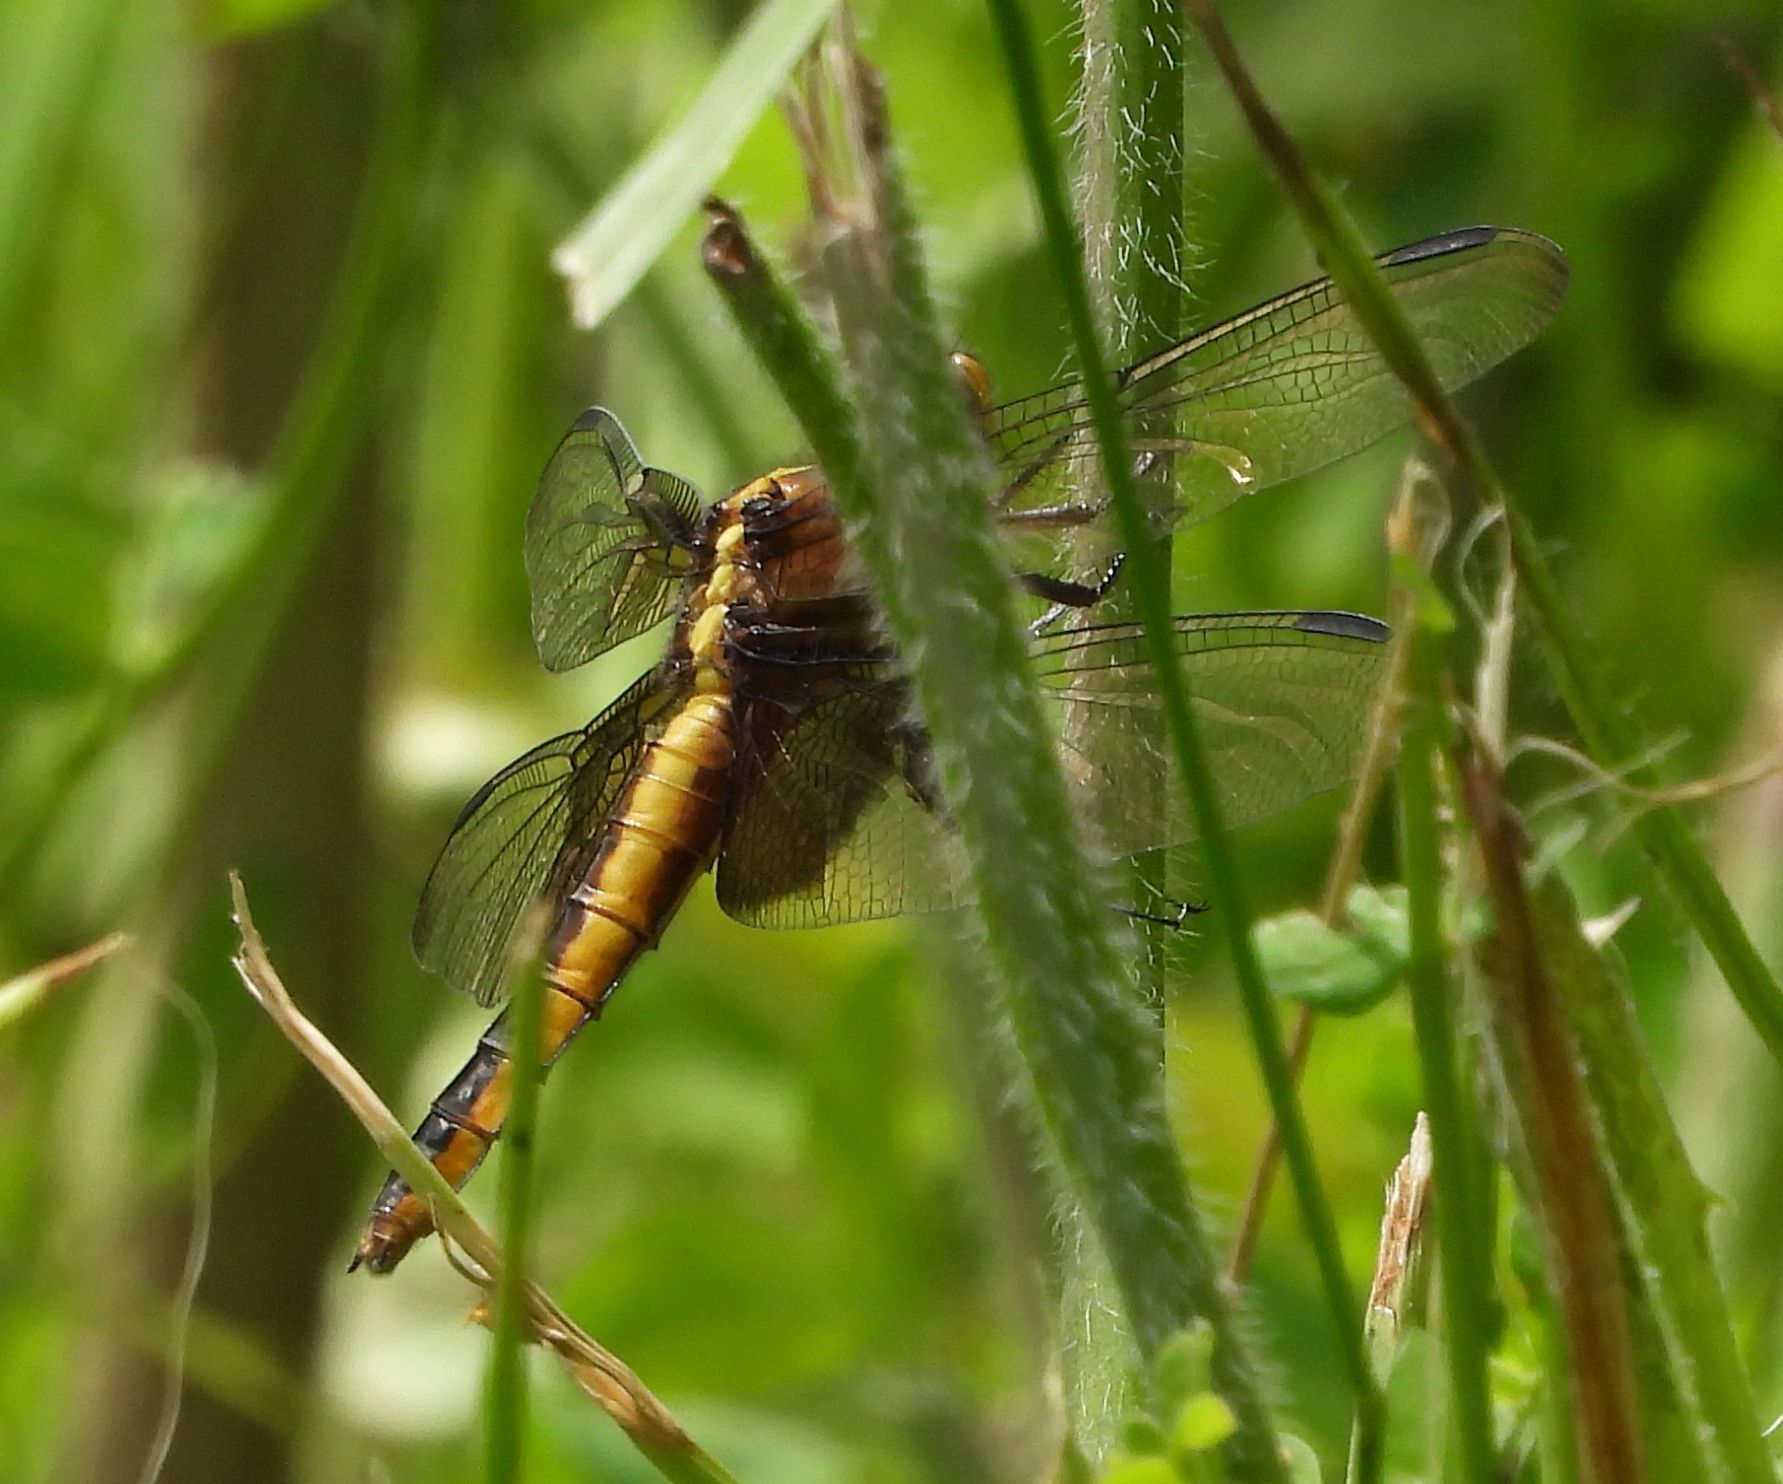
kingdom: Animalia
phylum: Arthropoda
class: Insecta
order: Odonata
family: Libellulidae
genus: Libellula
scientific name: Libellula luctuosa
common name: Widow skimmer
